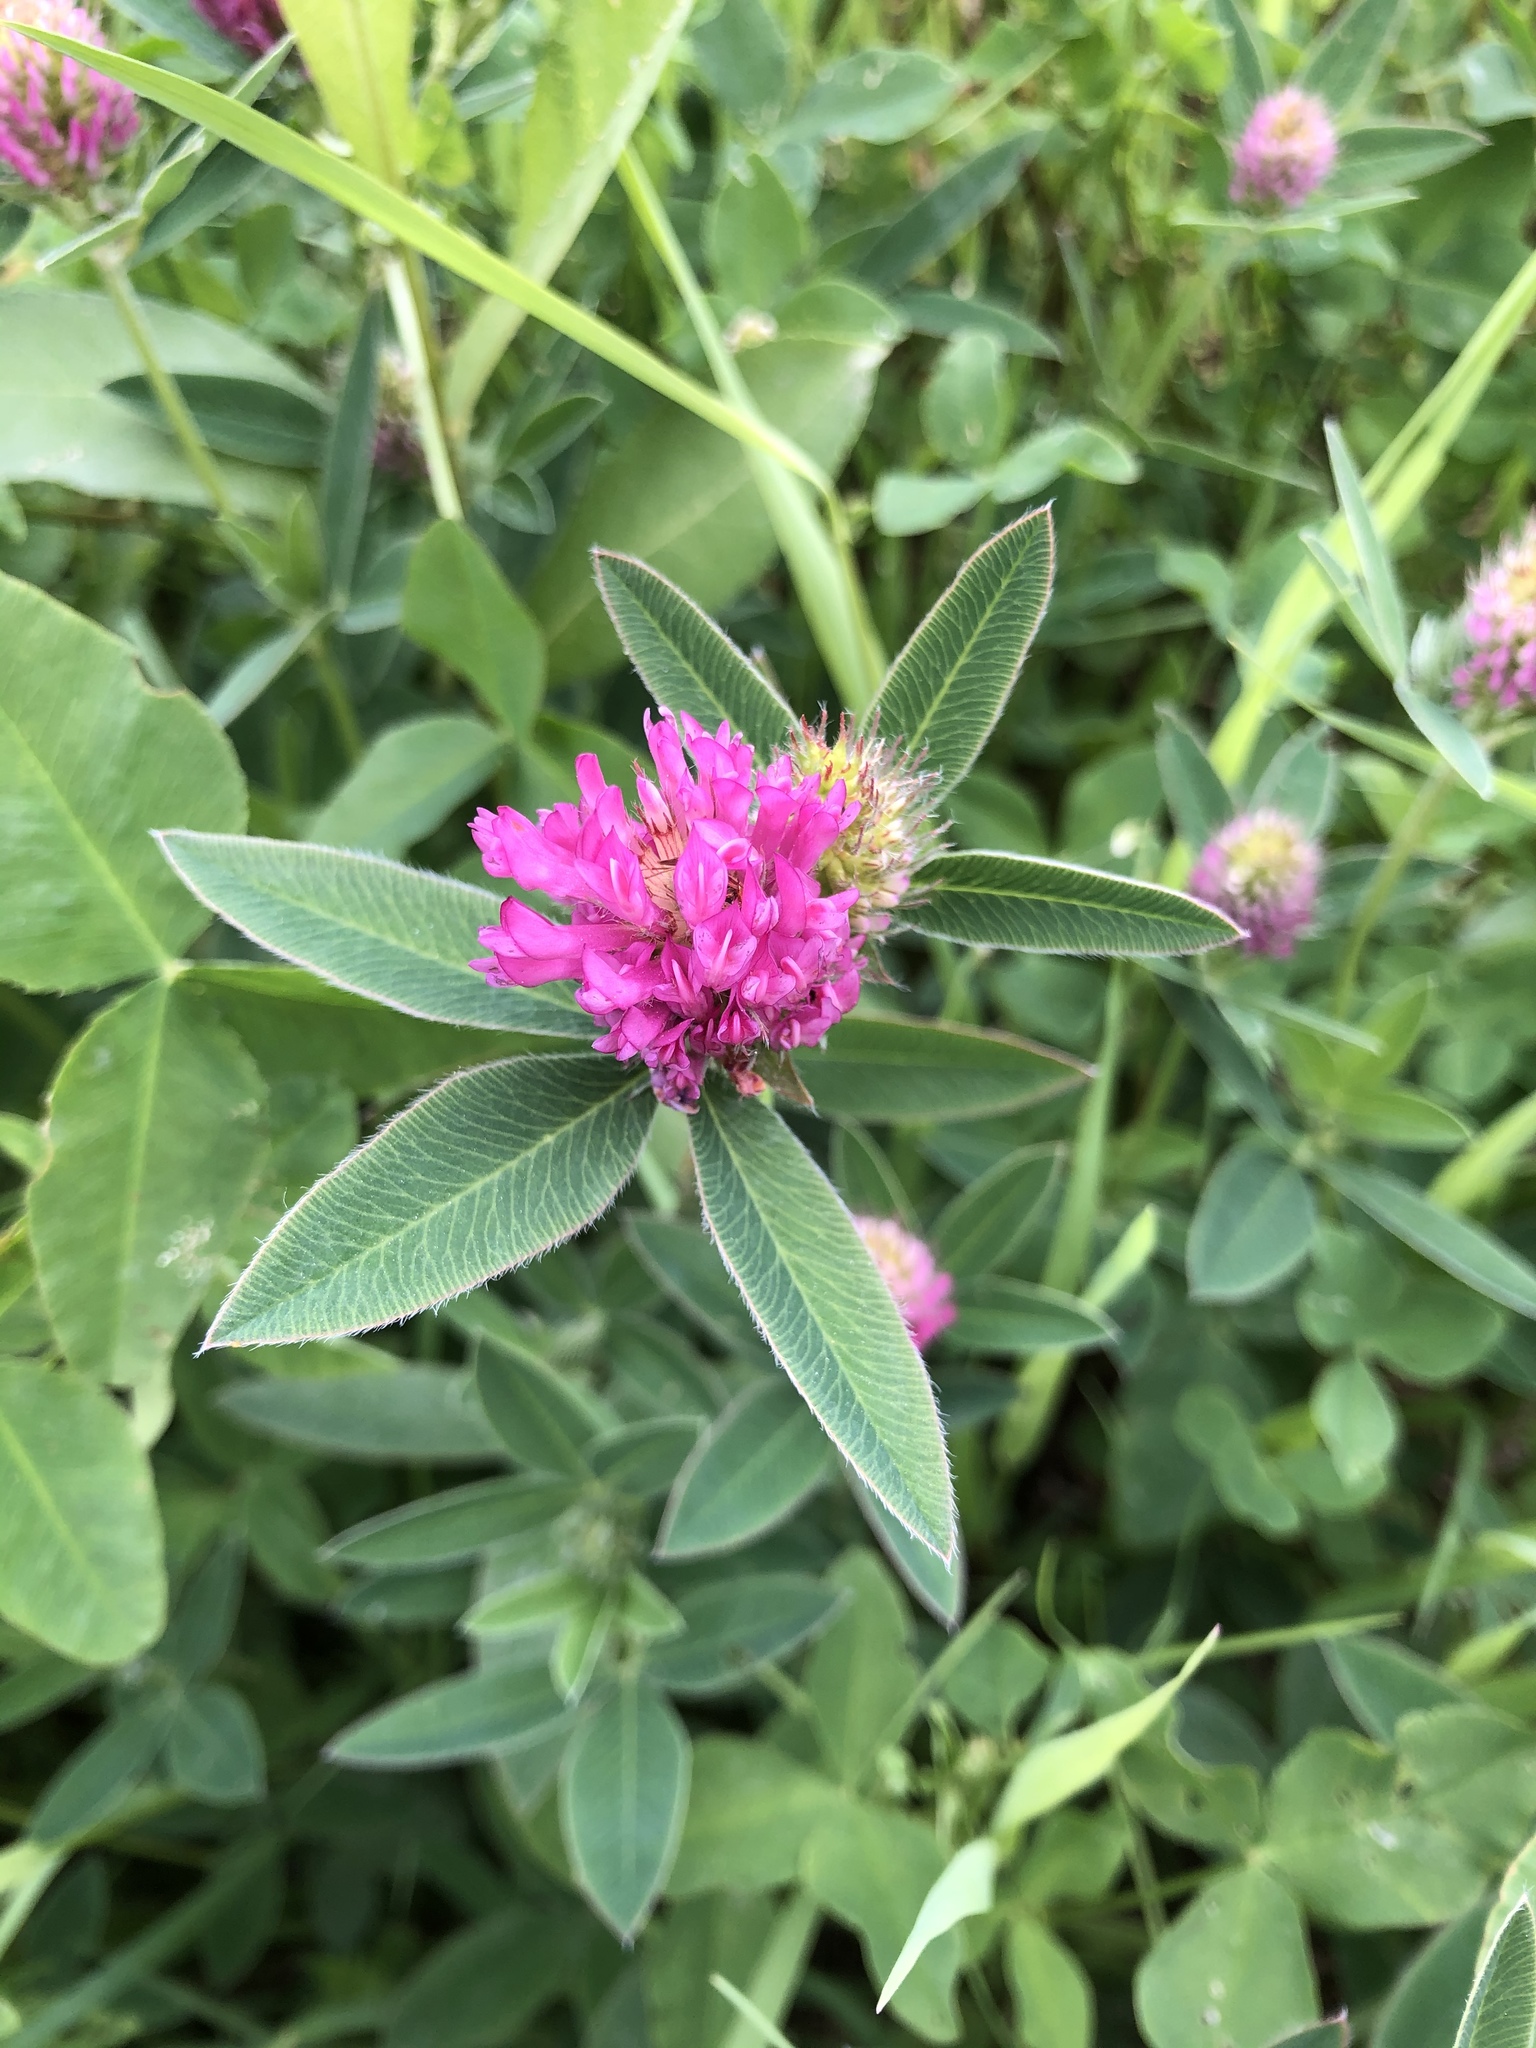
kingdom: Plantae
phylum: Tracheophyta
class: Magnoliopsida
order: Fabales
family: Fabaceae
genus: Trifolium
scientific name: Trifolium medium
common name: Zigzag clover
